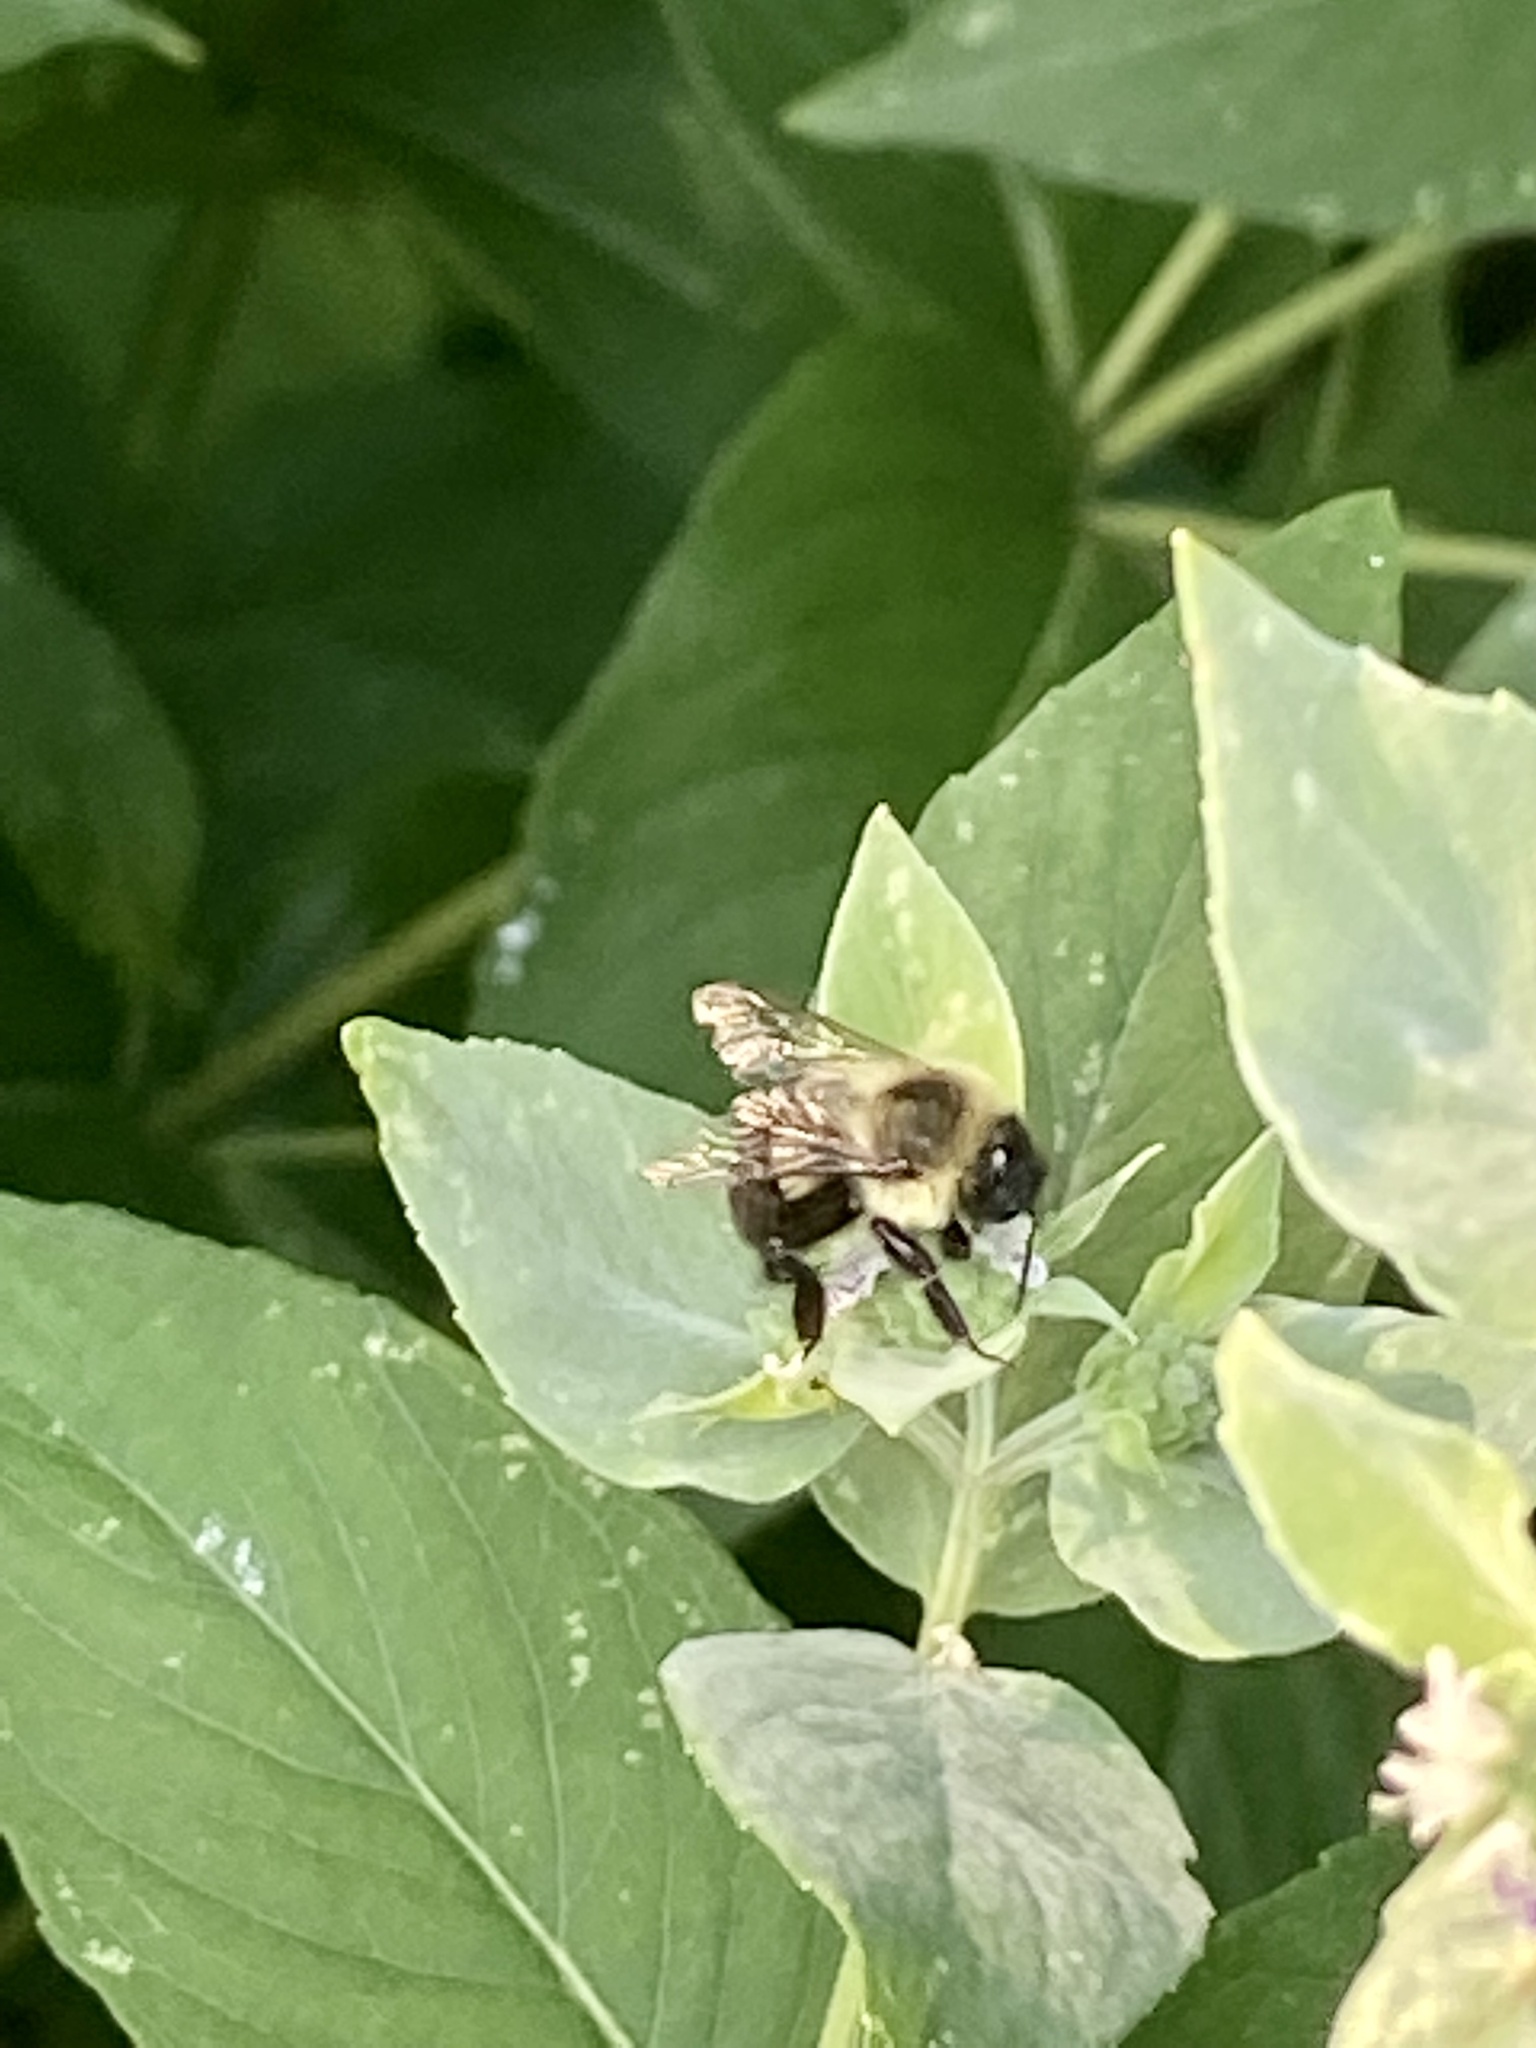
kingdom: Animalia
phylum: Arthropoda
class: Insecta
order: Hymenoptera
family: Apidae
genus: Bombus
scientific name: Bombus impatiens
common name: Common eastern bumble bee
